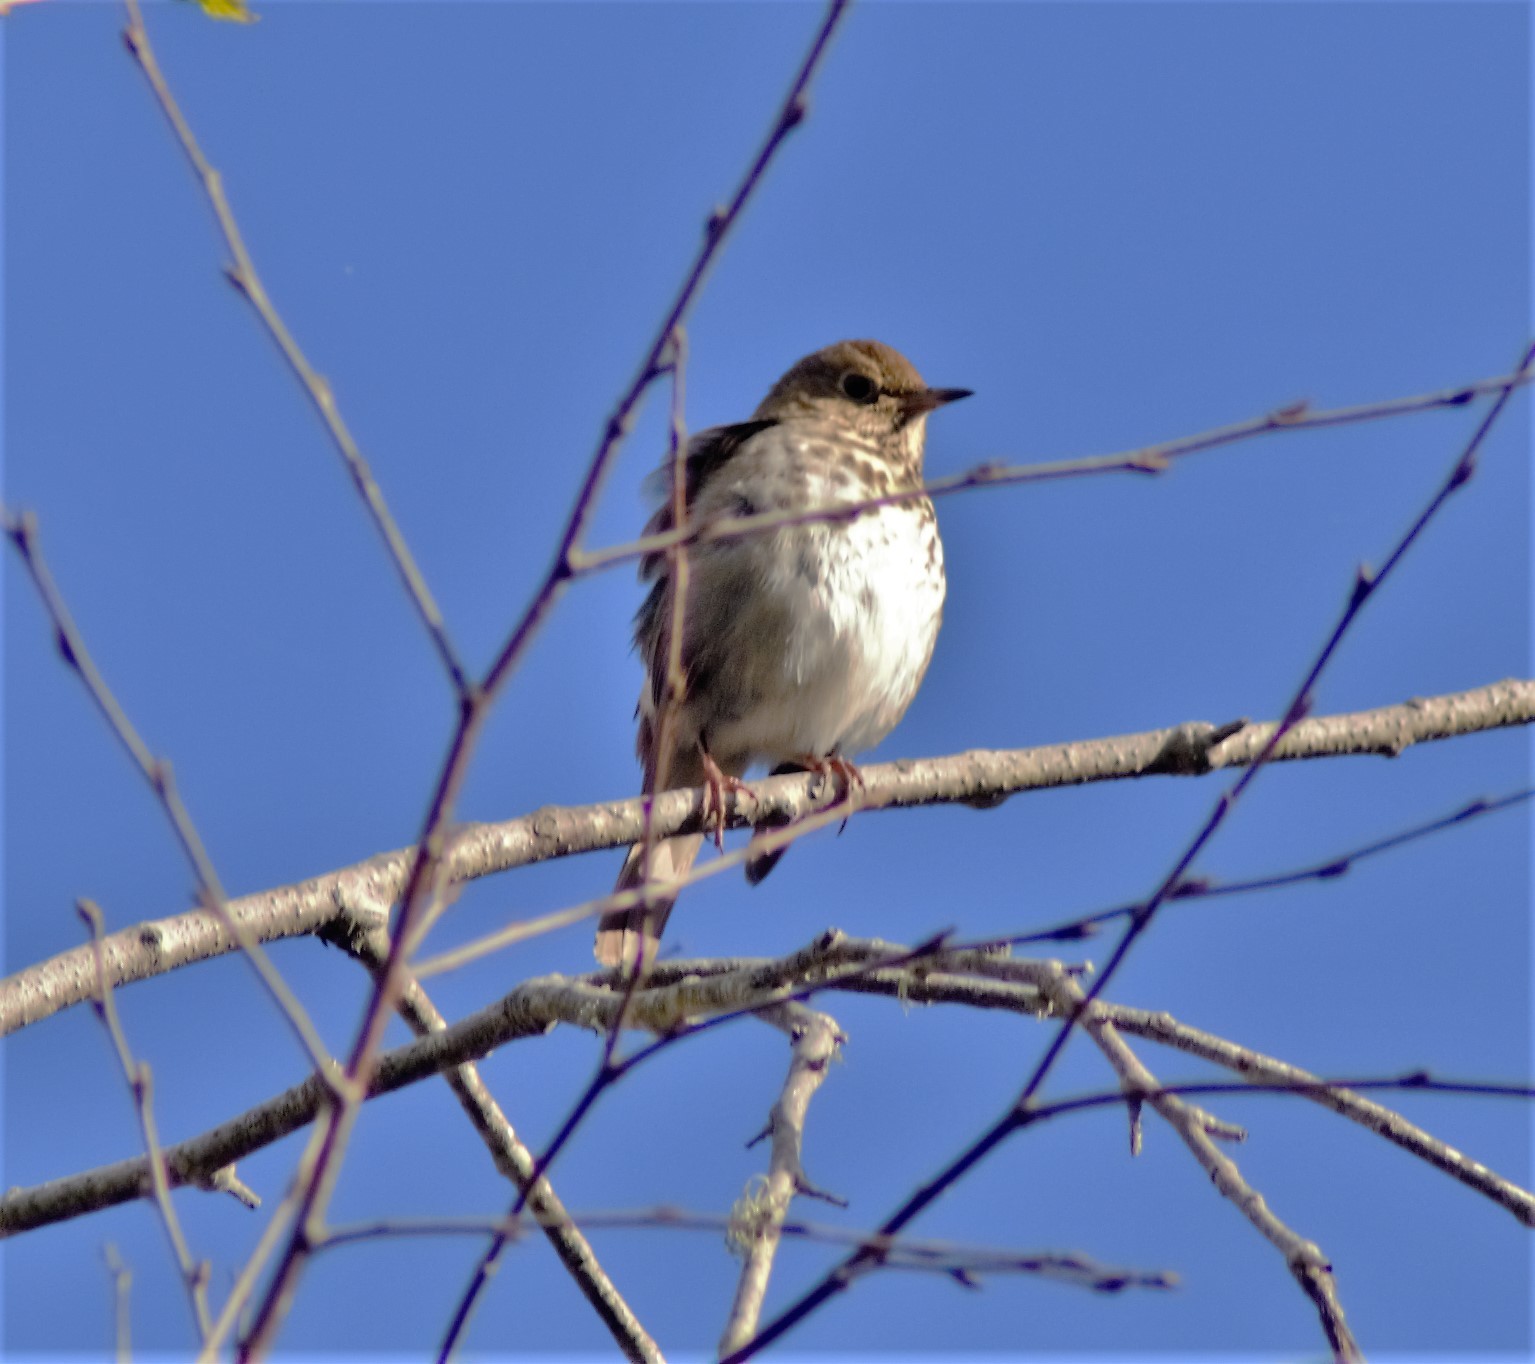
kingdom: Animalia
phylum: Chordata
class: Aves
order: Passeriformes
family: Turdidae
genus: Catharus
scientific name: Catharus guttatus
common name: Hermit thrush
